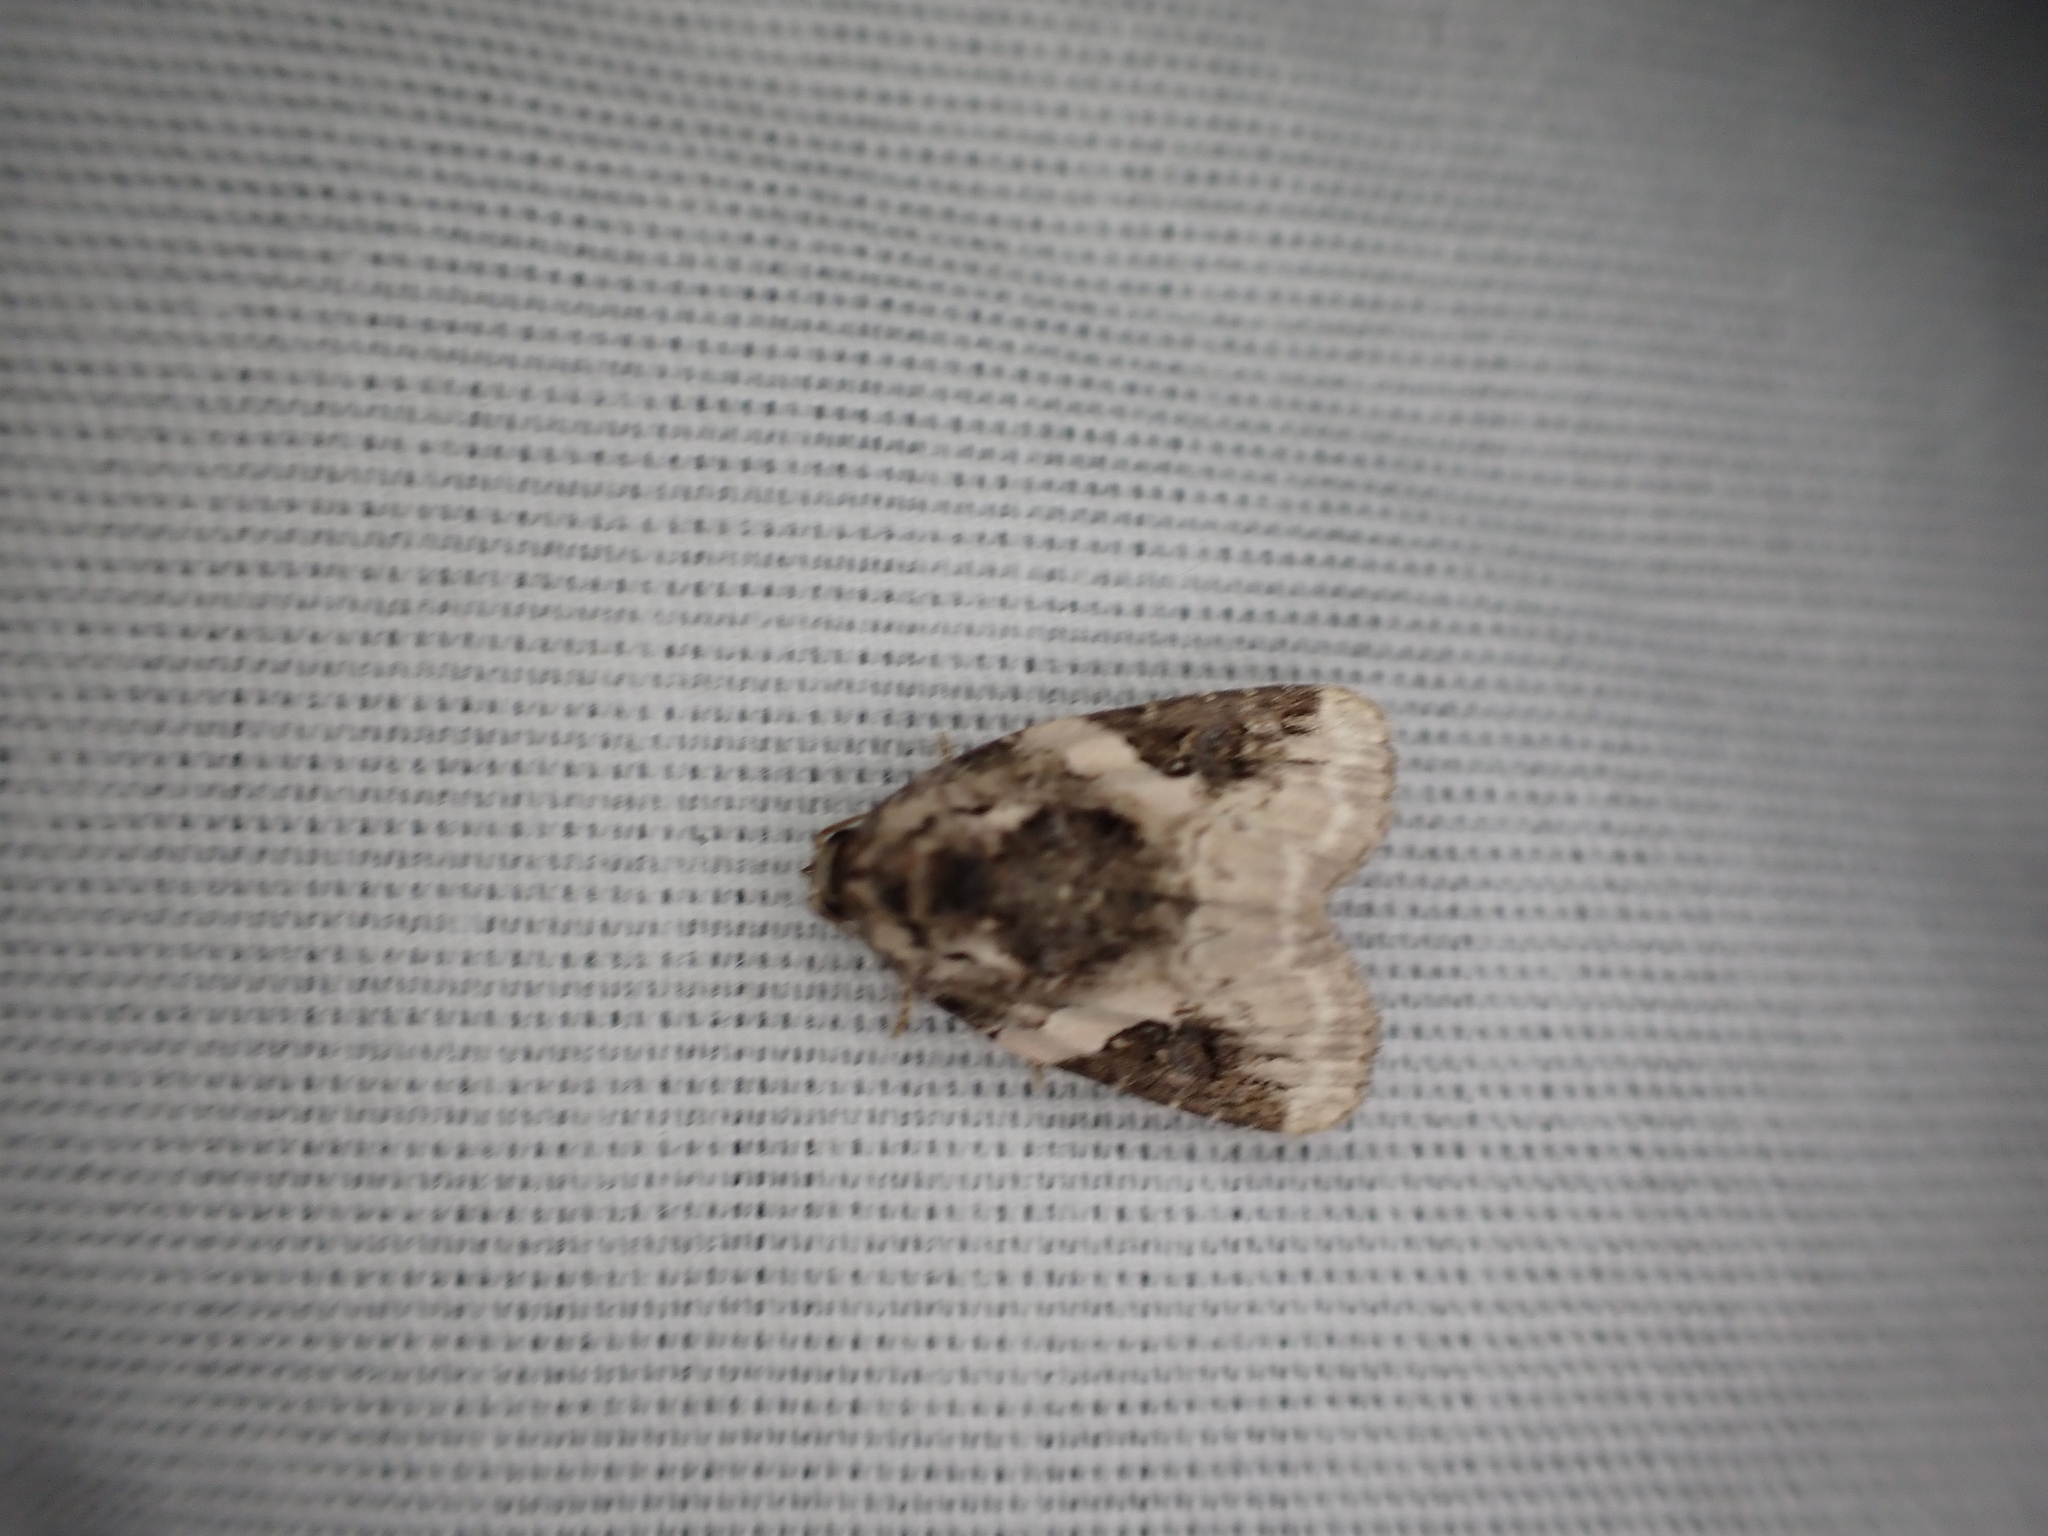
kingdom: Animalia
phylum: Arthropoda
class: Insecta
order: Lepidoptera
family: Noctuidae
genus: Pseudeustrotia
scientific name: Pseudeustrotia carneola
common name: Pink-barred lithacodia moth
